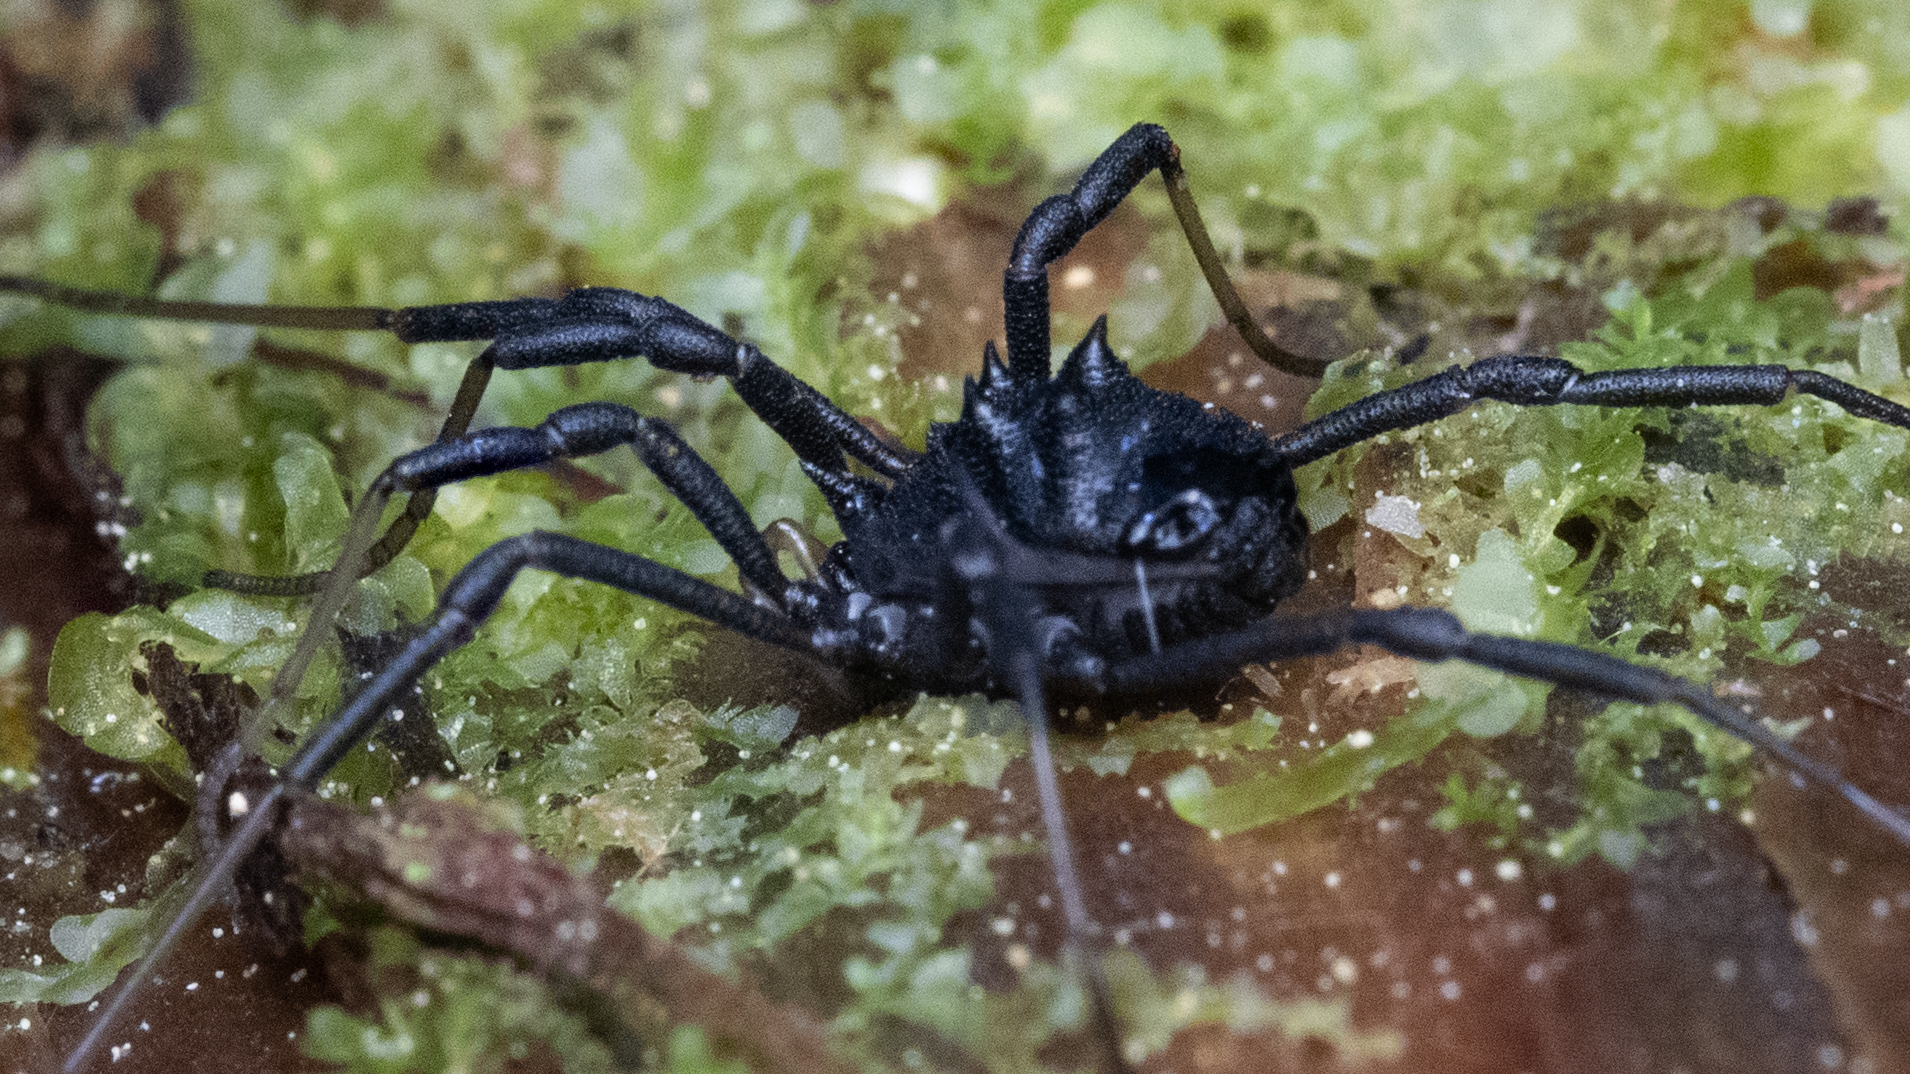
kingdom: Animalia
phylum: Arthropoda
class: Arachnida
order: Opiliones
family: Ischyropsalididae
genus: Acuclavella
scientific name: Acuclavella
